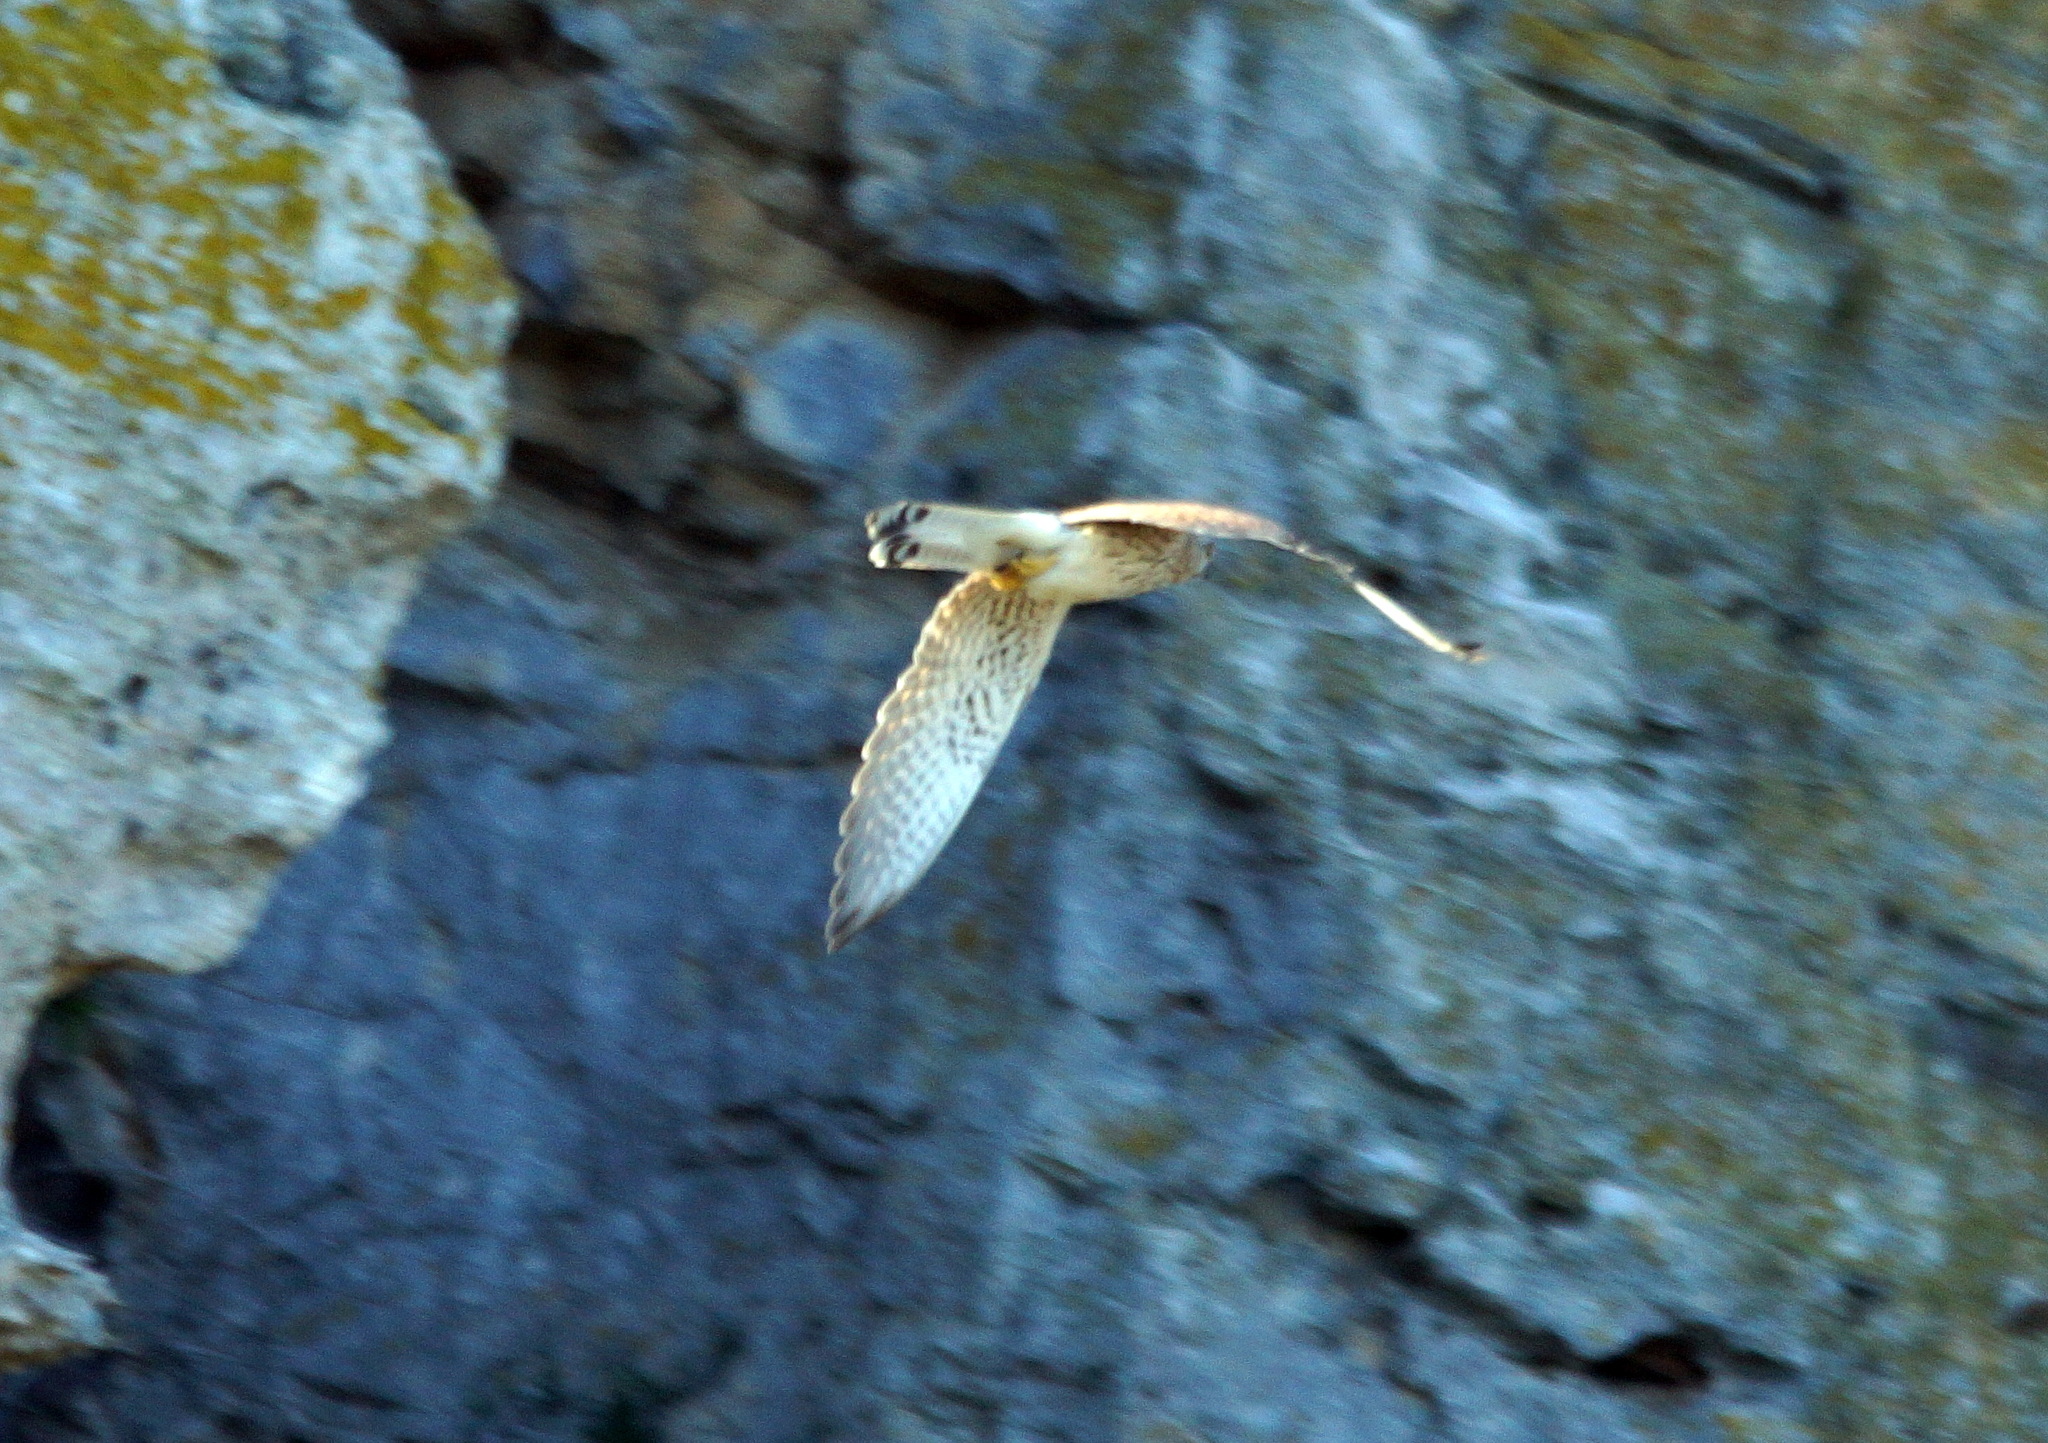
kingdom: Animalia
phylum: Chordata
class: Aves
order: Falconiformes
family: Falconidae
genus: Falco
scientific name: Falco tinnunculus
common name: Common kestrel
